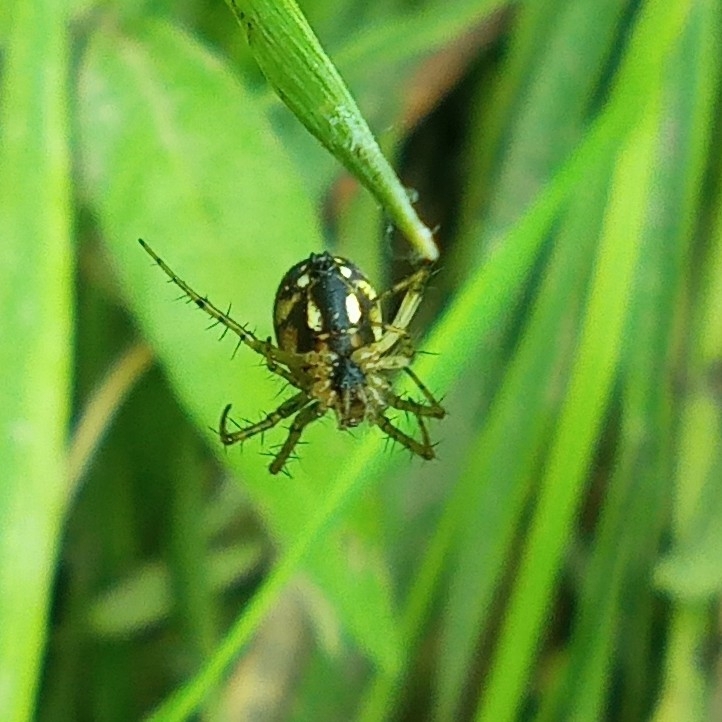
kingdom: Animalia
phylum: Arthropoda
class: Arachnida
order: Araneae
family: Araneidae
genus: Mangora
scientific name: Mangora acalypha
